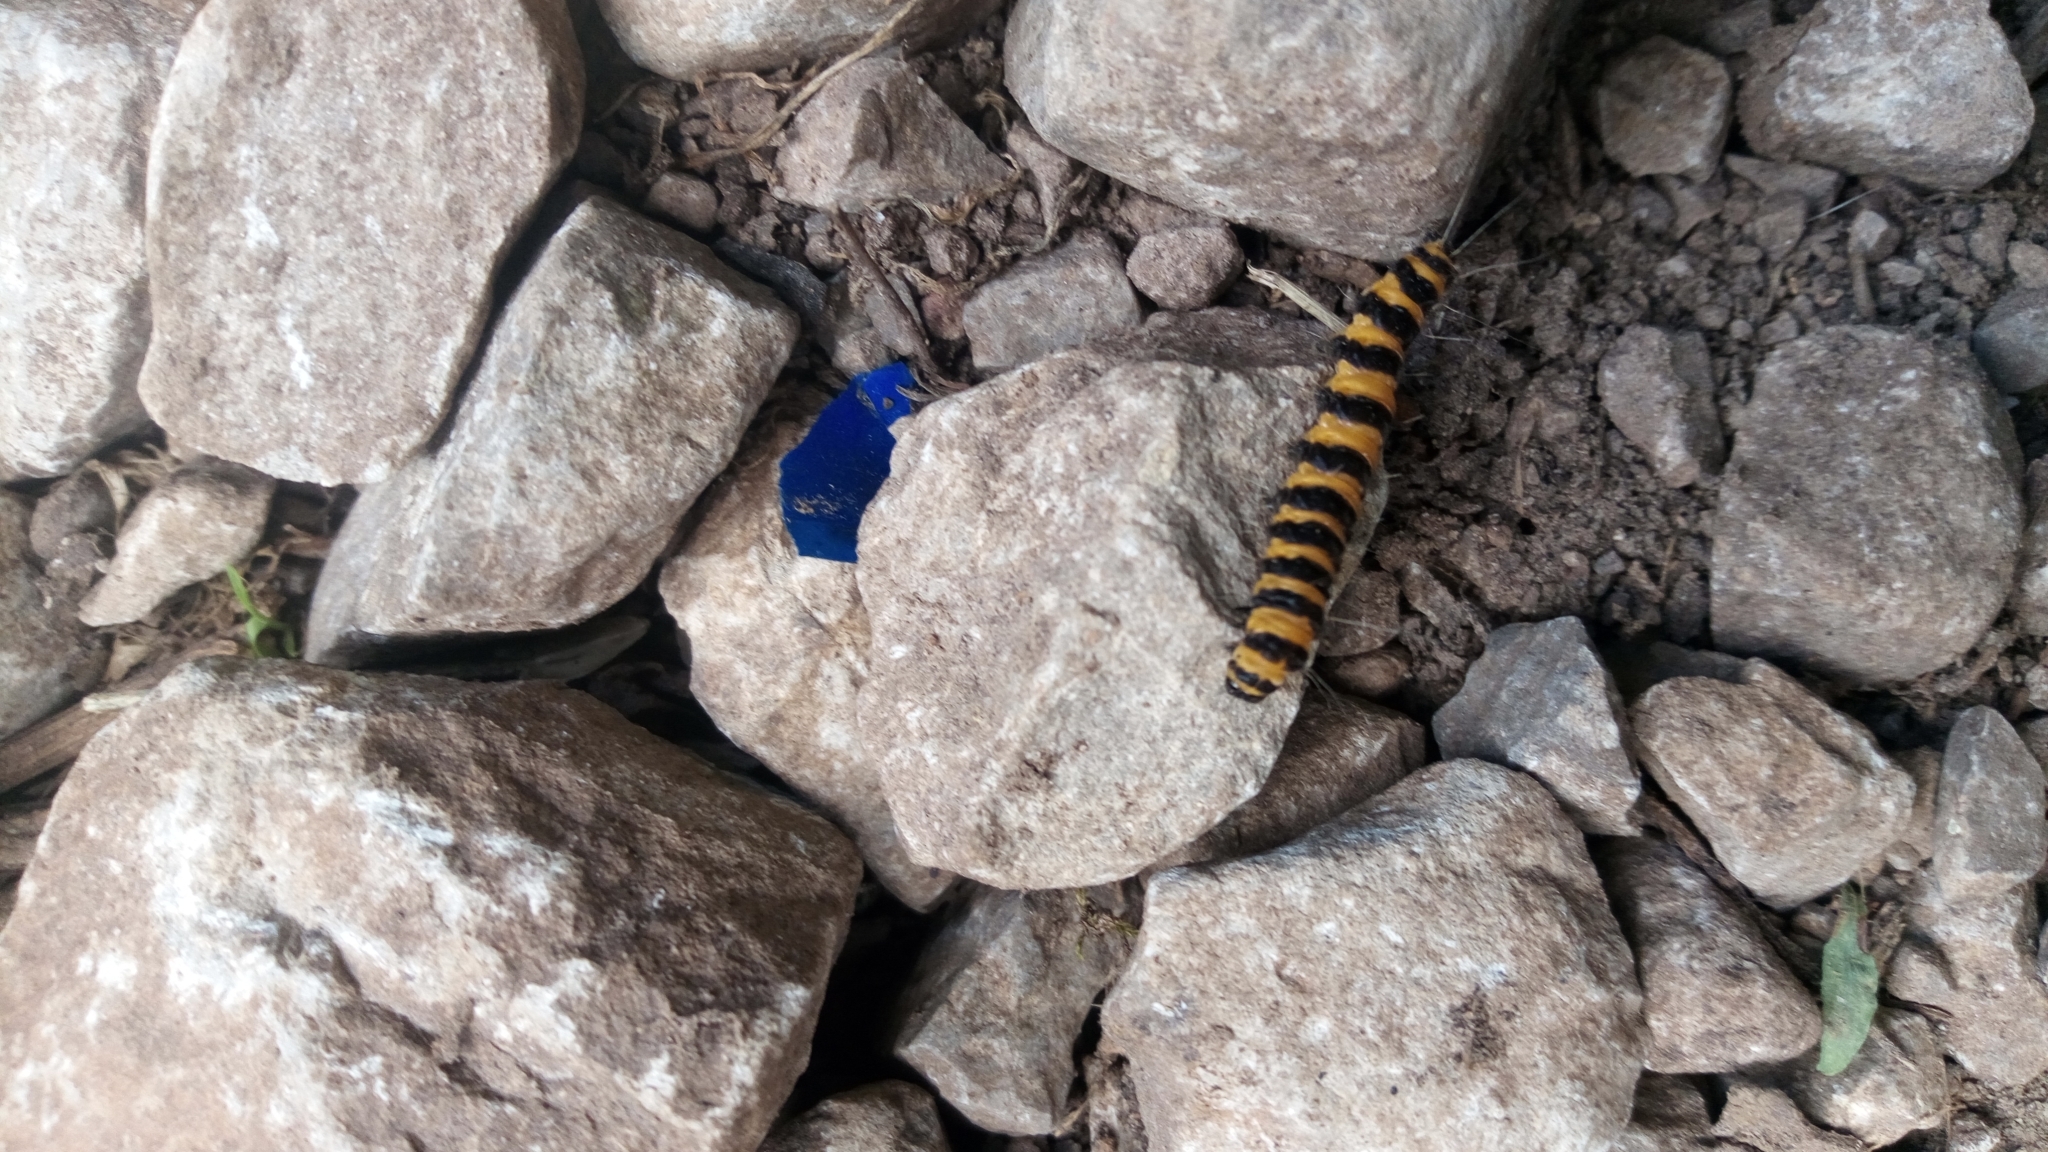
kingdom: Animalia
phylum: Arthropoda
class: Insecta
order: Lepidoptera
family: Erebidae
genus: Tyria
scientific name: Tyria jacobaeae
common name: Cinnabar
